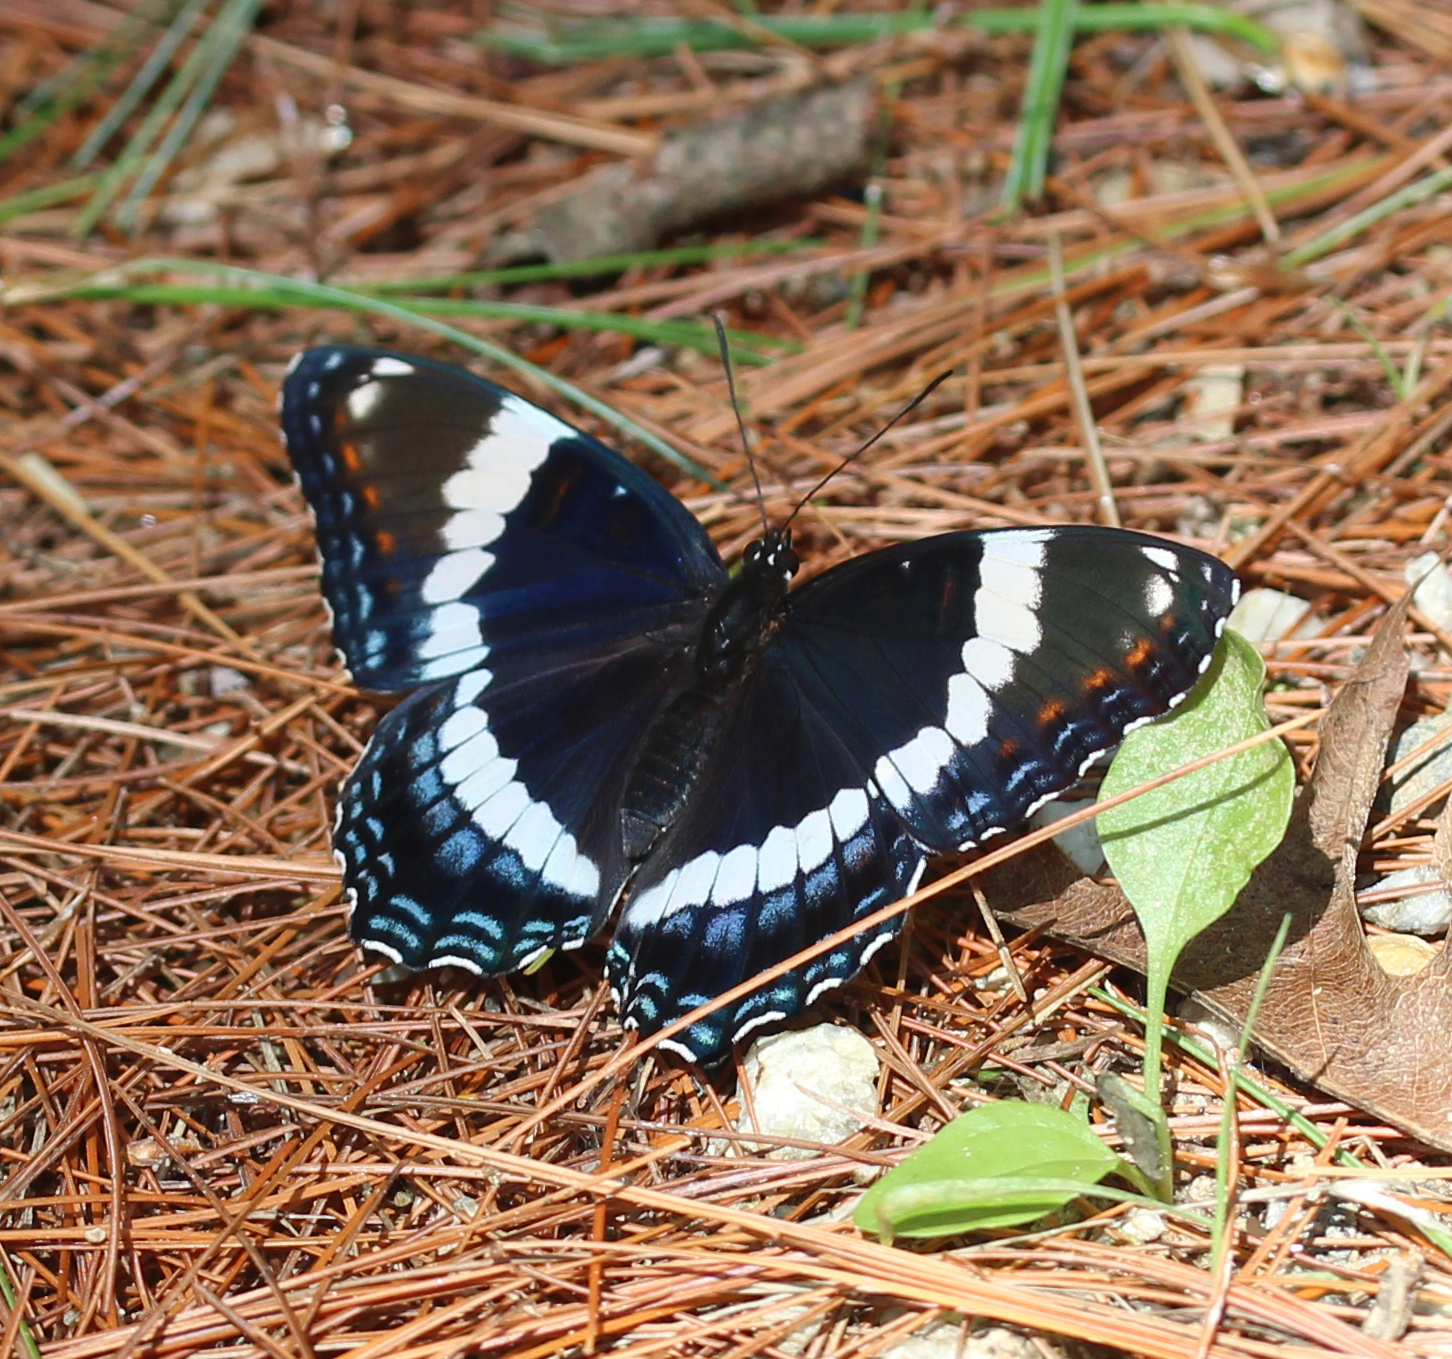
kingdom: Animalia
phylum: Arthropoda
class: Insecta
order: Lepidoptera
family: Nymphalidae
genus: Limenitis
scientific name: Limenitis arthemis
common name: Red-spotted admiral
